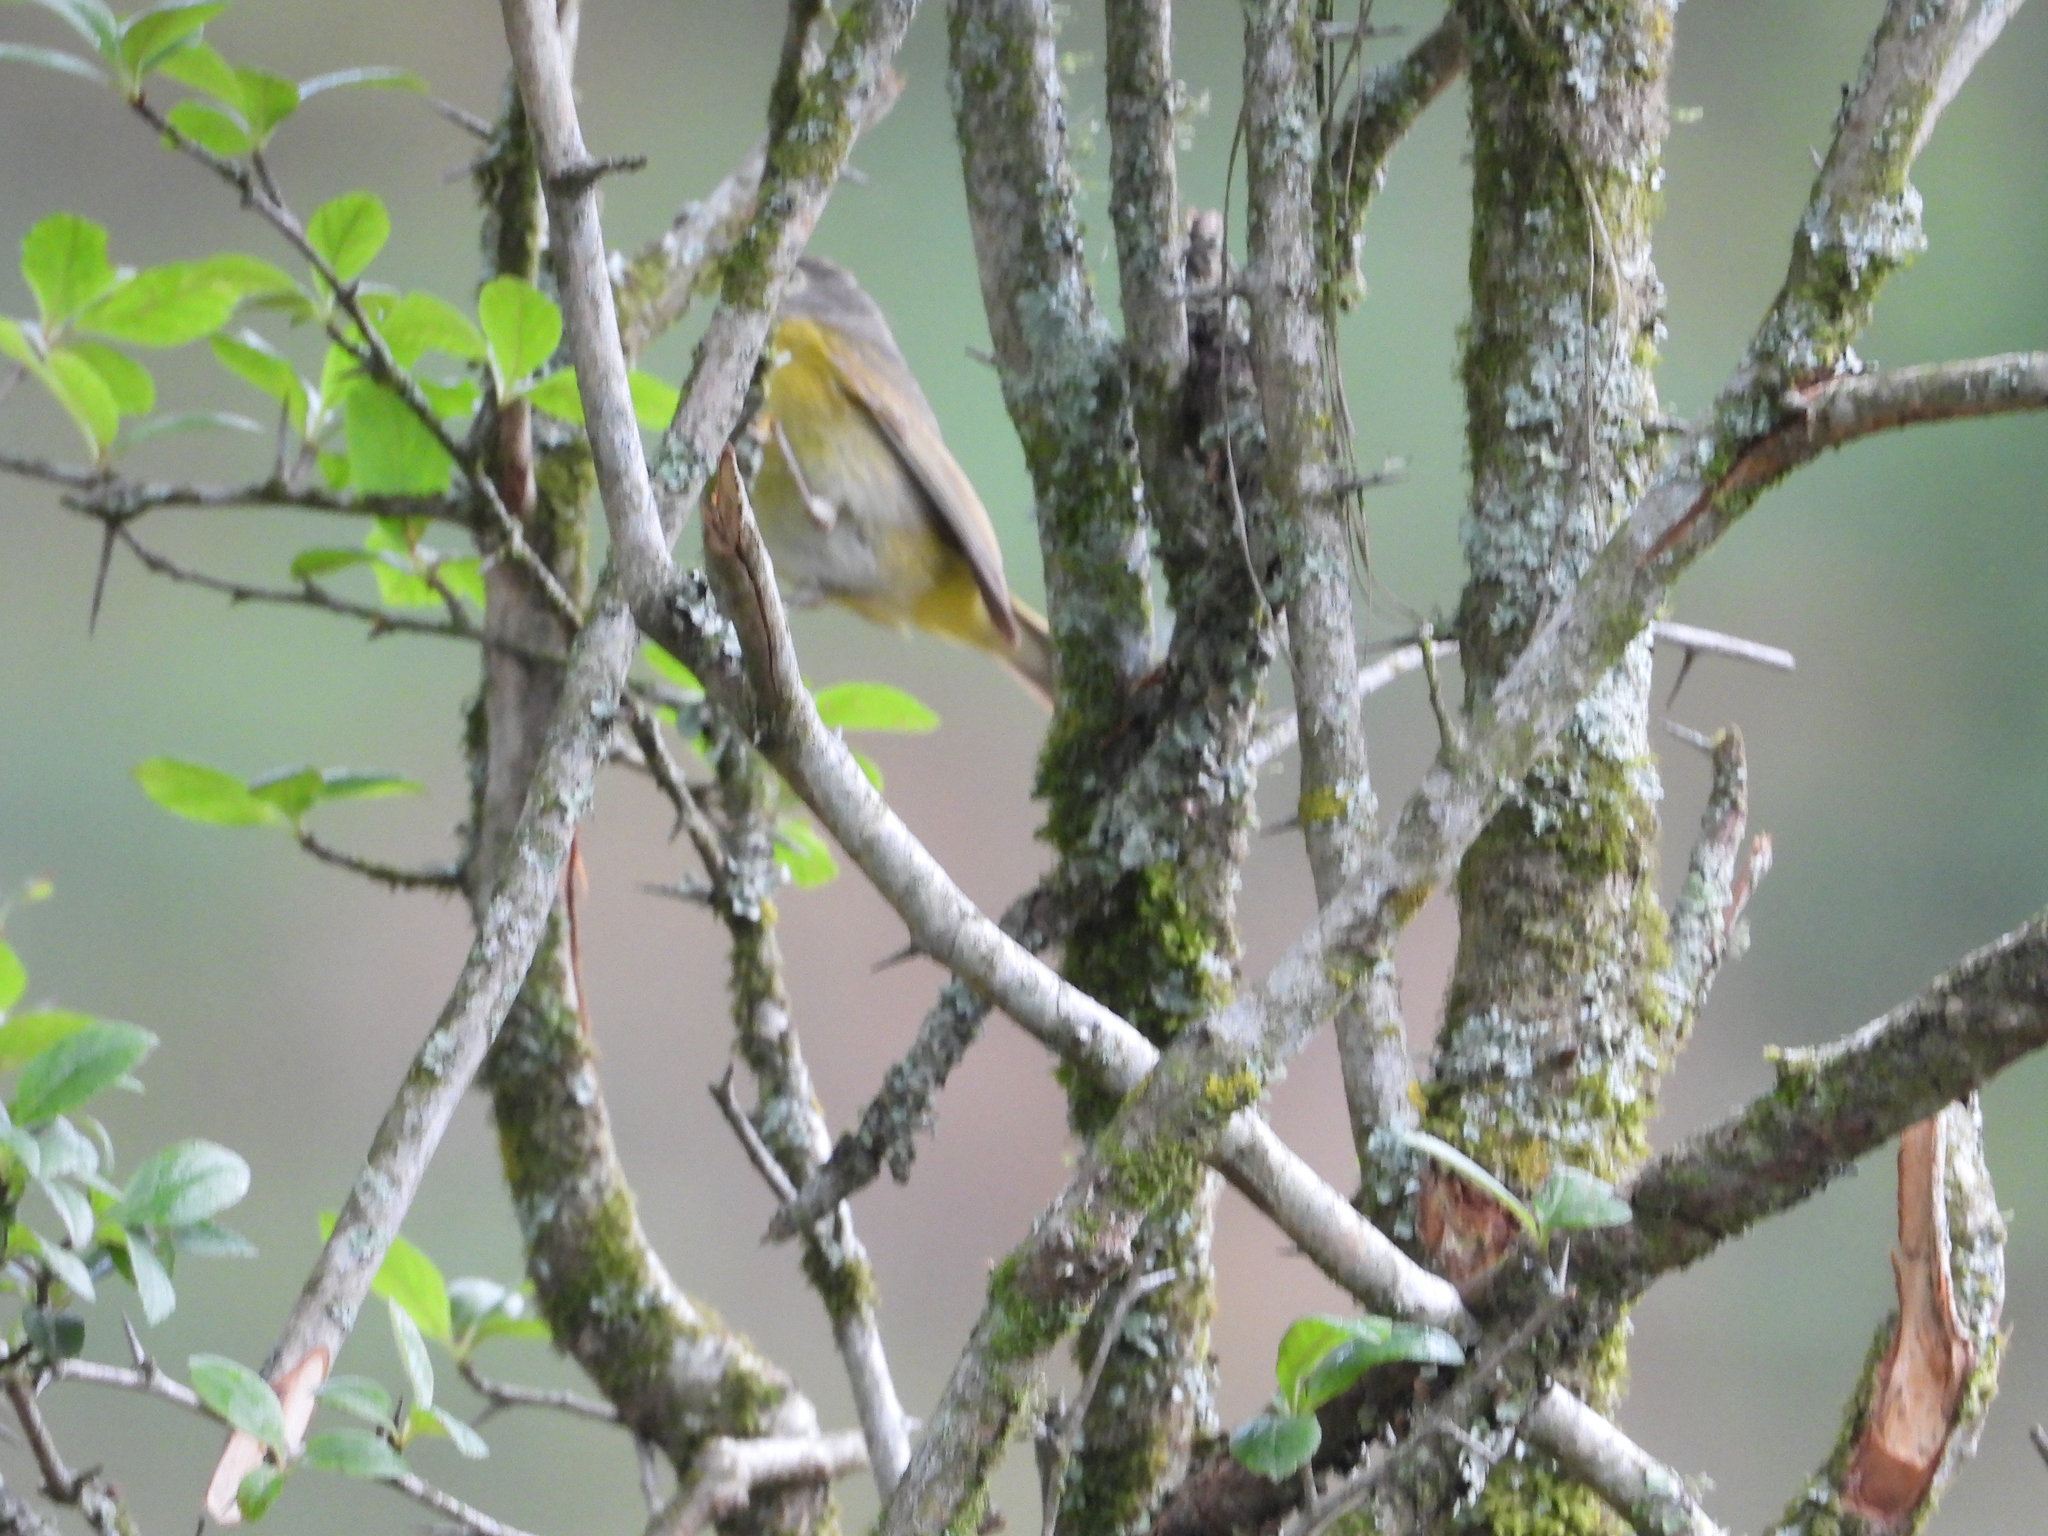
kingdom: Animalia
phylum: Chordata
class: Aves
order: Passeriformes
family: Parulidae
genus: Leiothlypis
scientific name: Leiothlypis ruficapilla
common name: Nashville warbler
